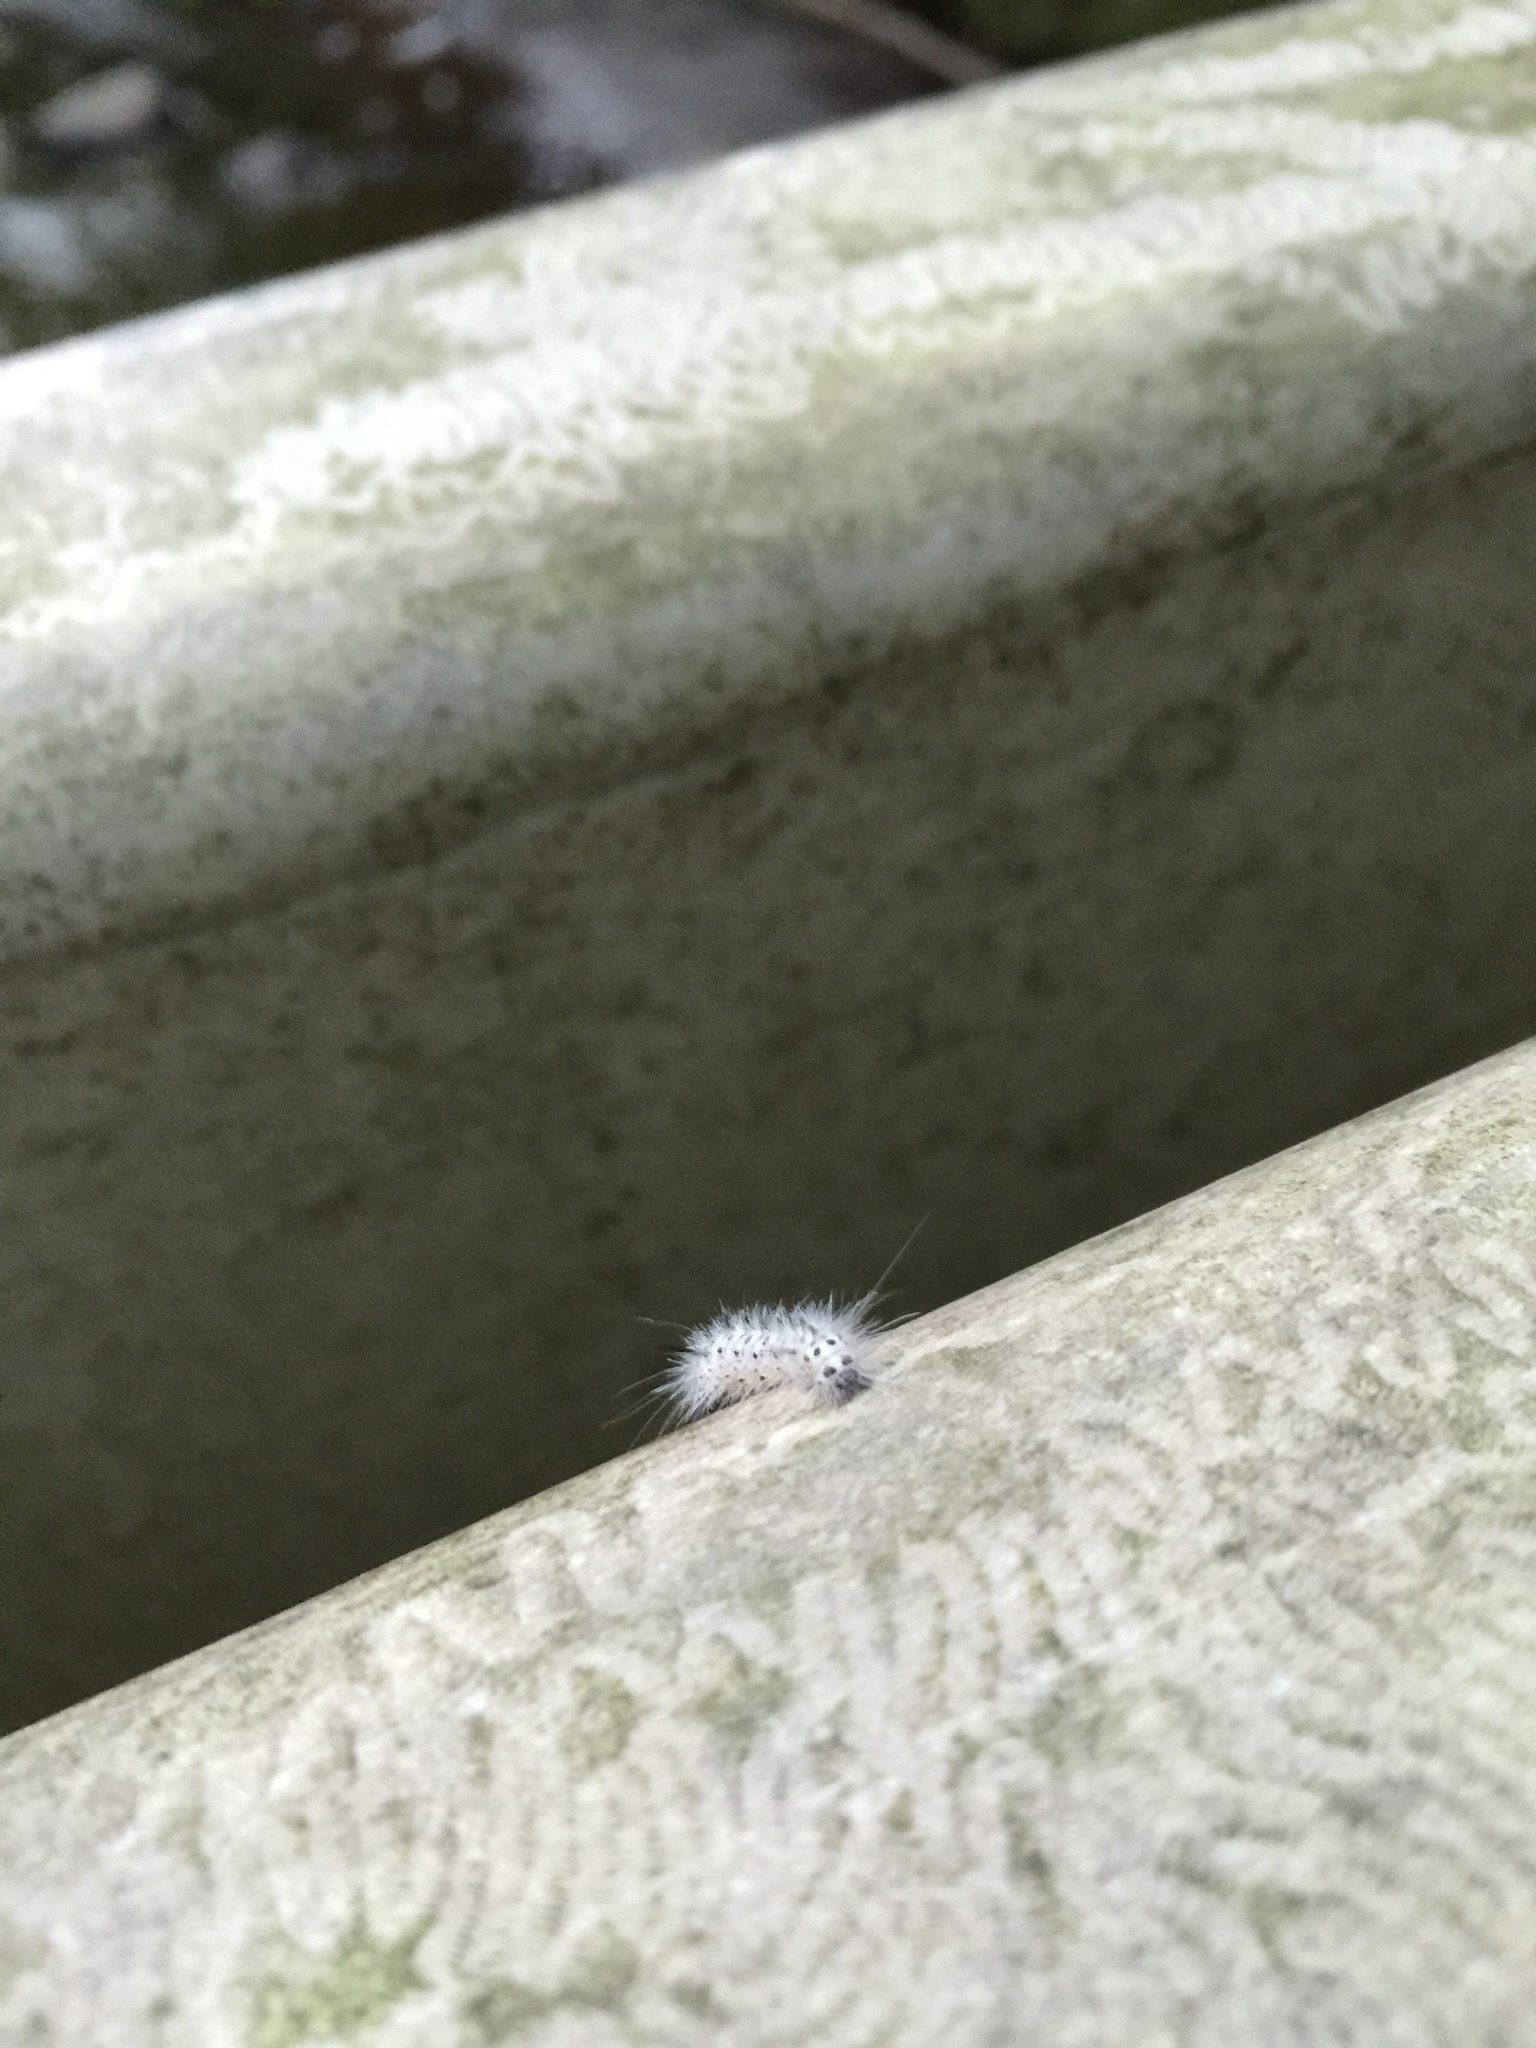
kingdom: Animalia
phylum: Arthropoda
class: Insecta
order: Lepidoptera
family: Erebidae
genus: Lophocampa
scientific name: Lophocampa caryae
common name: Hickory tussock moth
